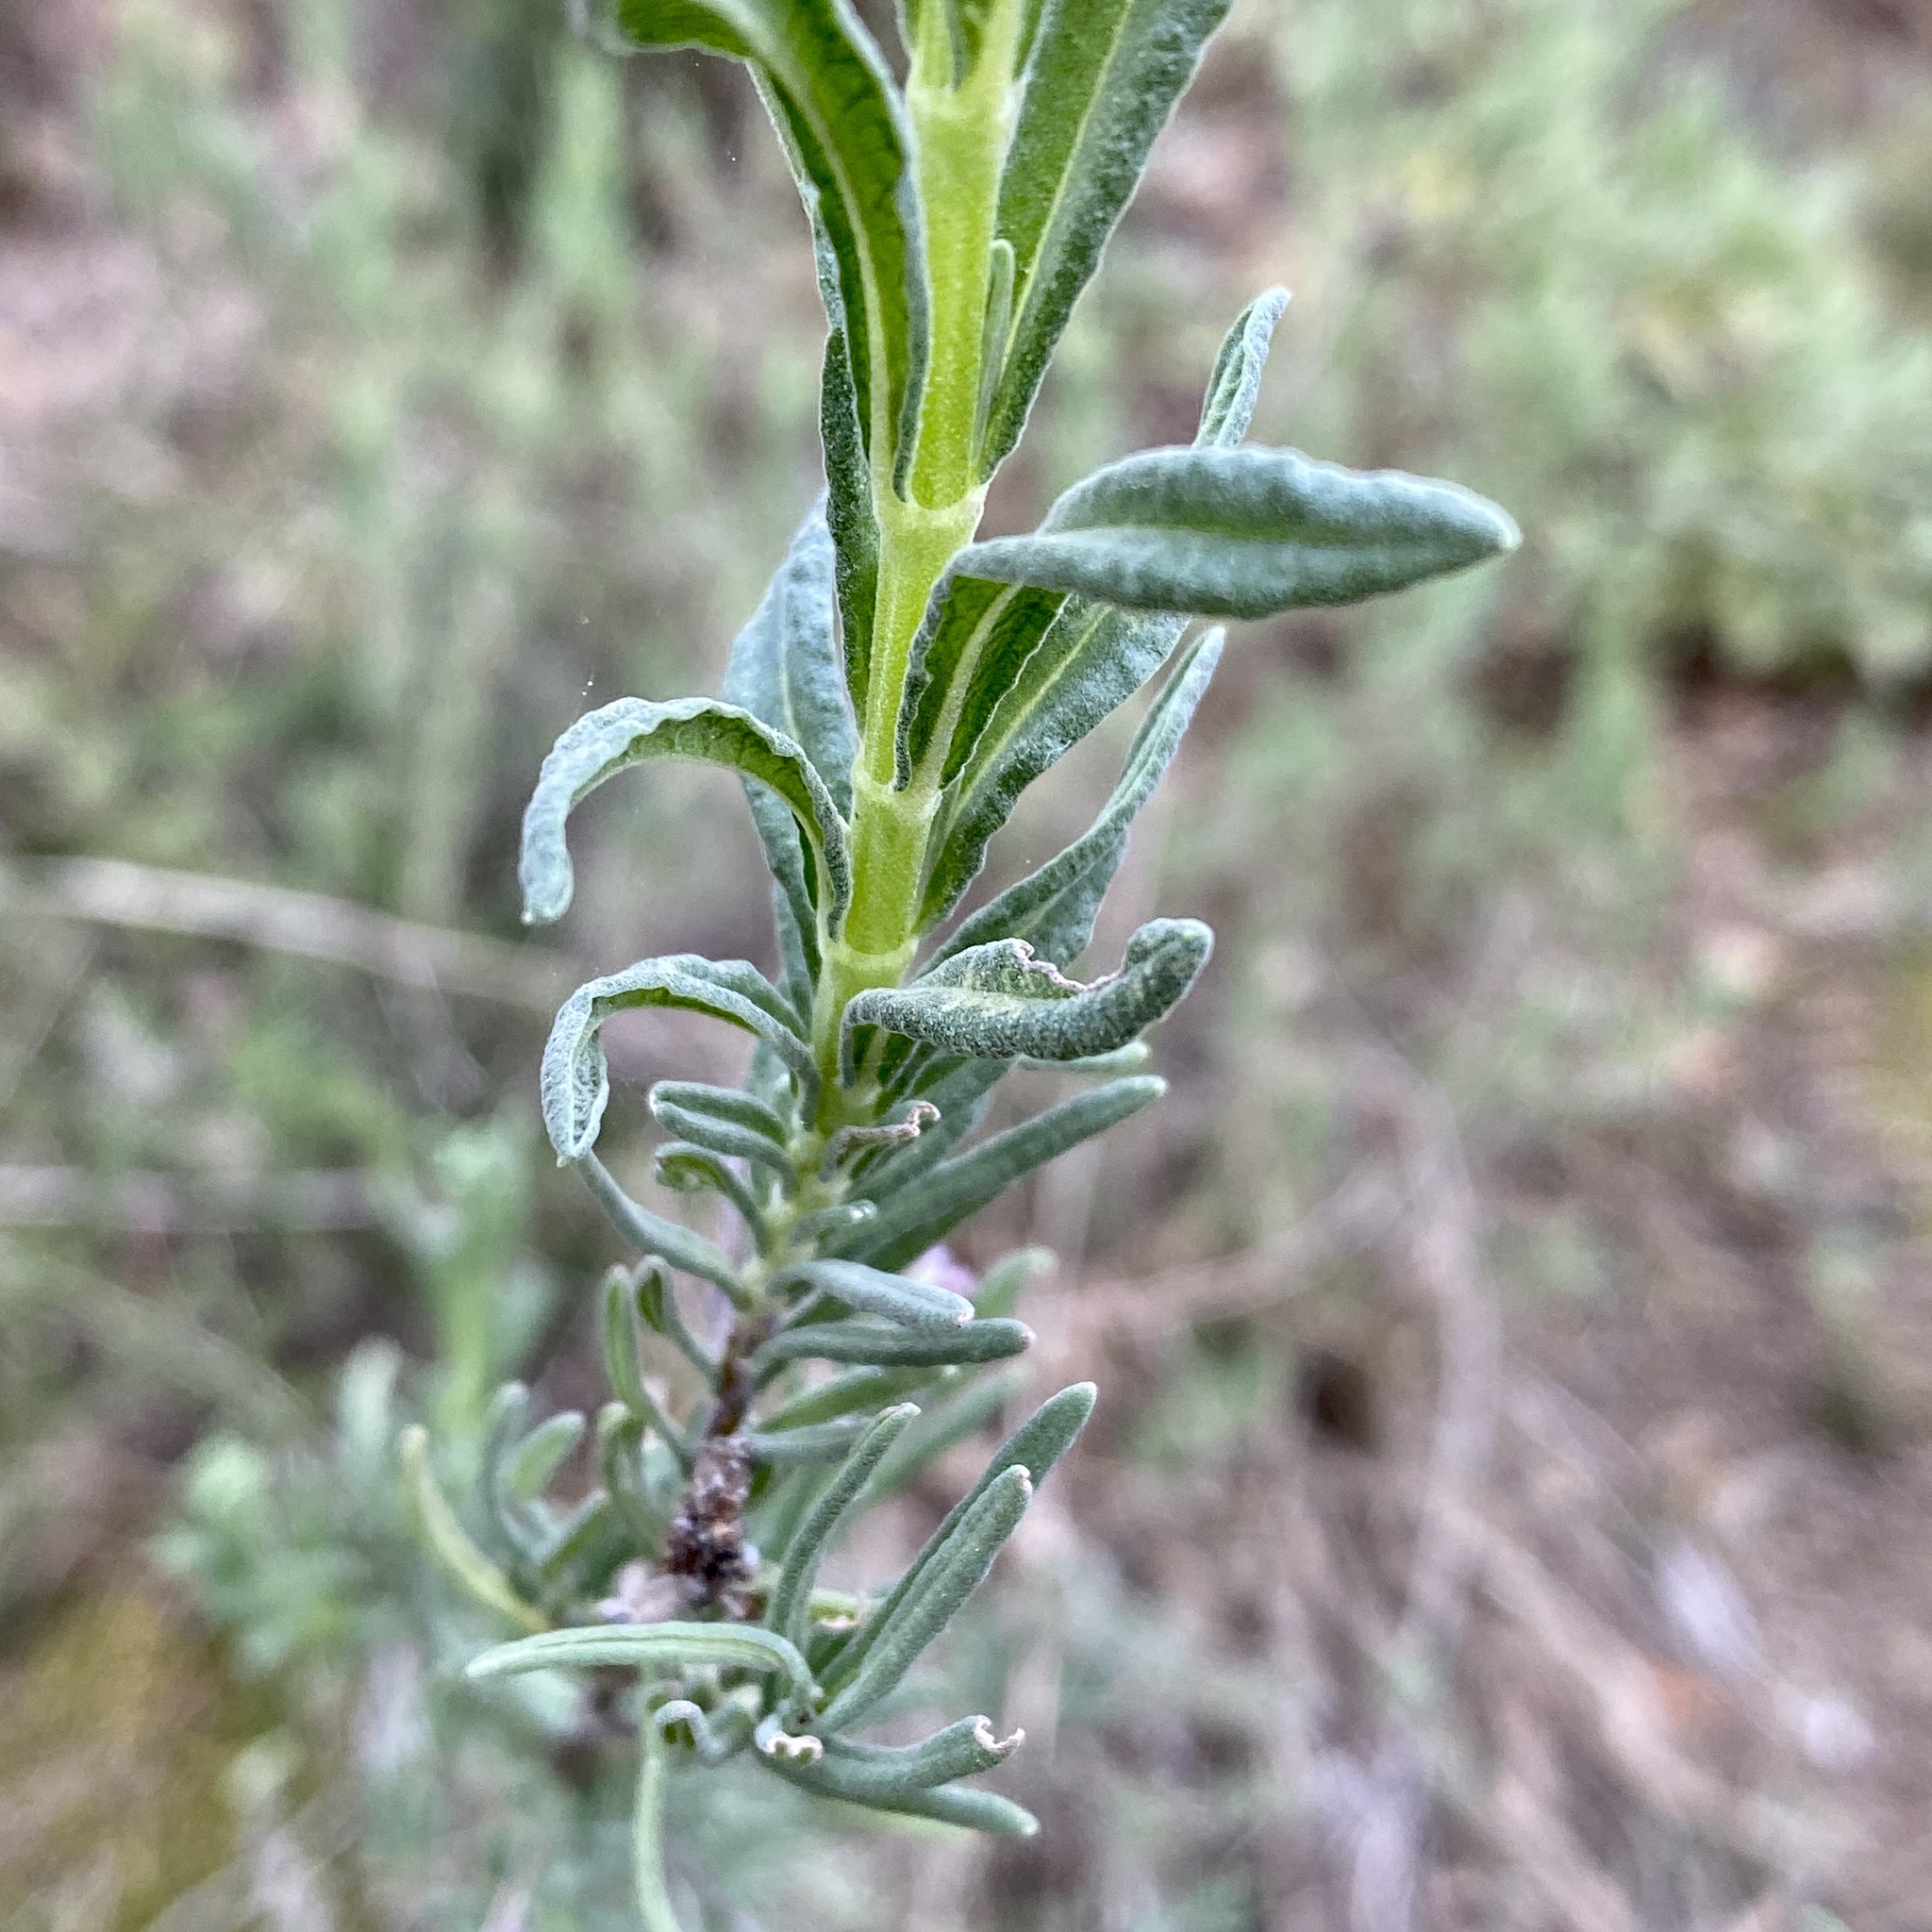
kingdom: Plantae
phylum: Tracheophyta
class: Magnoliopsida
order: Lamiales
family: Lamiaceae
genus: Lavandula
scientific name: Lavandula stoechas
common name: French lavender
